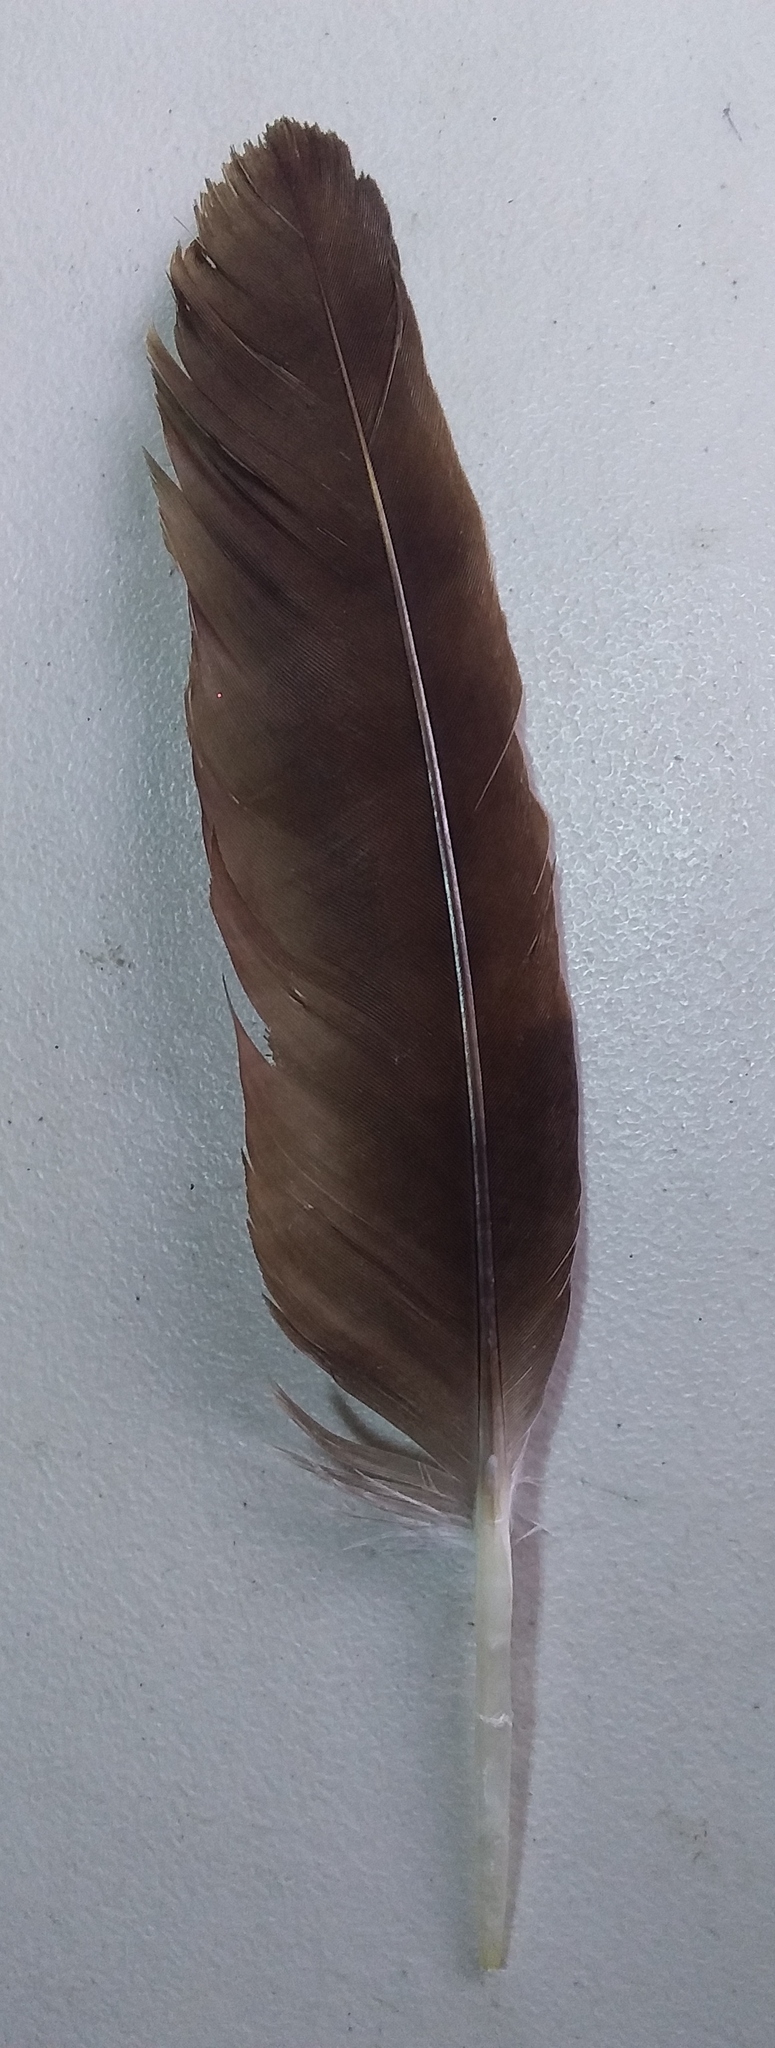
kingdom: Animalia
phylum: Chordata
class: Aves
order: Accipitriformes
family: Cathartidae
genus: Cathartes
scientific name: Cathartes aura
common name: Turkey vulture
